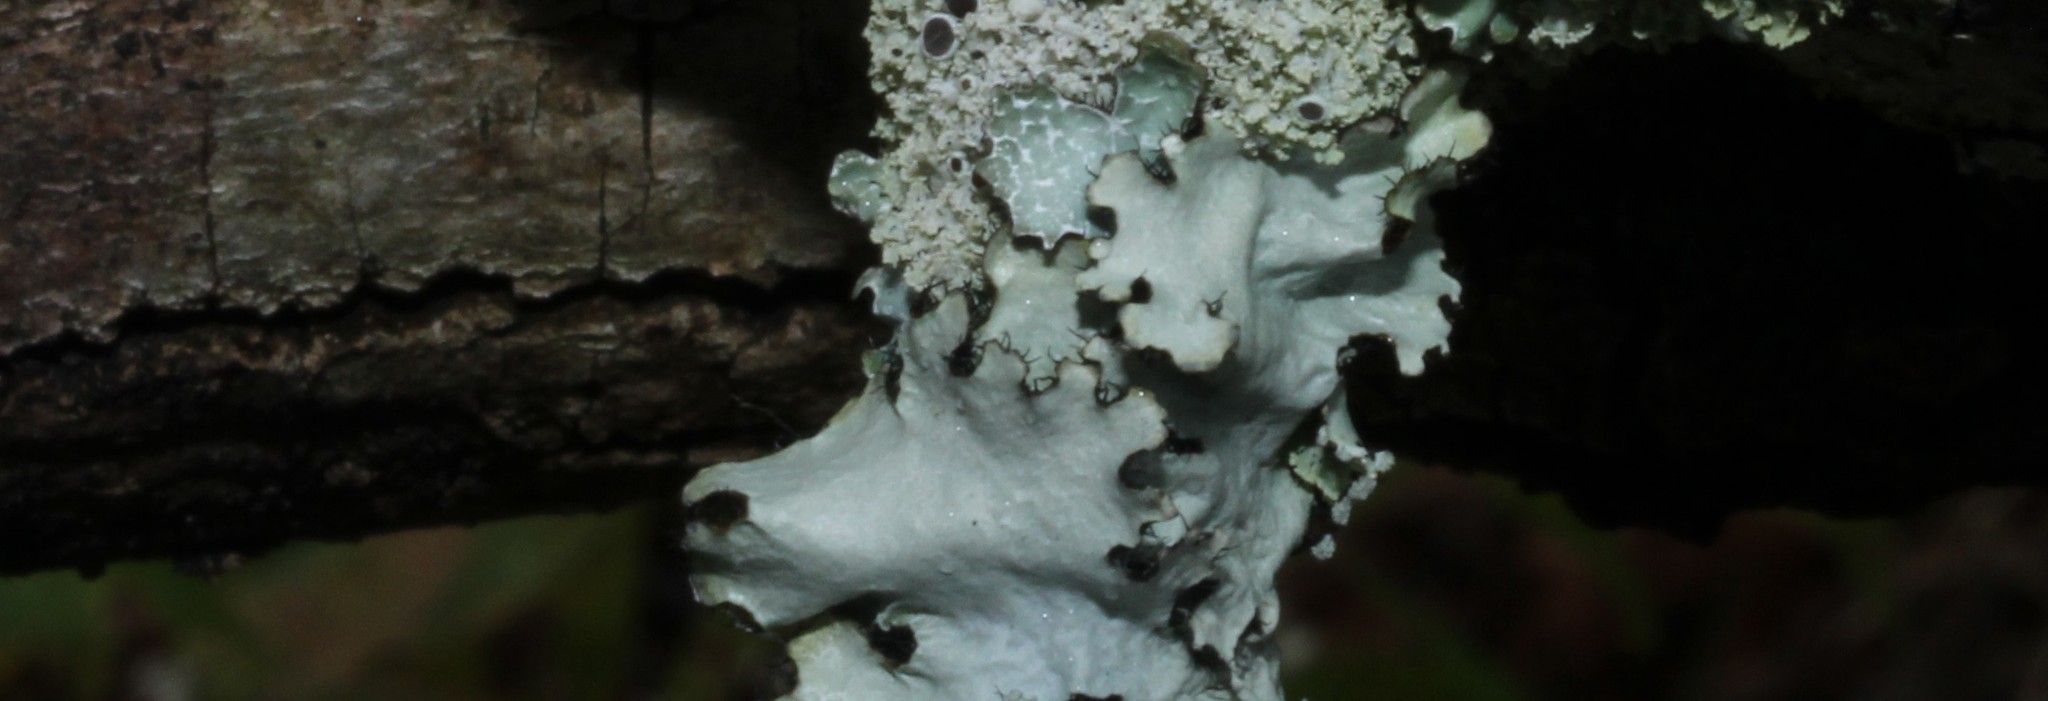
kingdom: Fungi
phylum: Ascomycota
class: Lecanoromycetes
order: Lecanorales
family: Parmeliaceae
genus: Parmotrema
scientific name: Parmotrema hypotropum
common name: Powdered ruffle lichen
